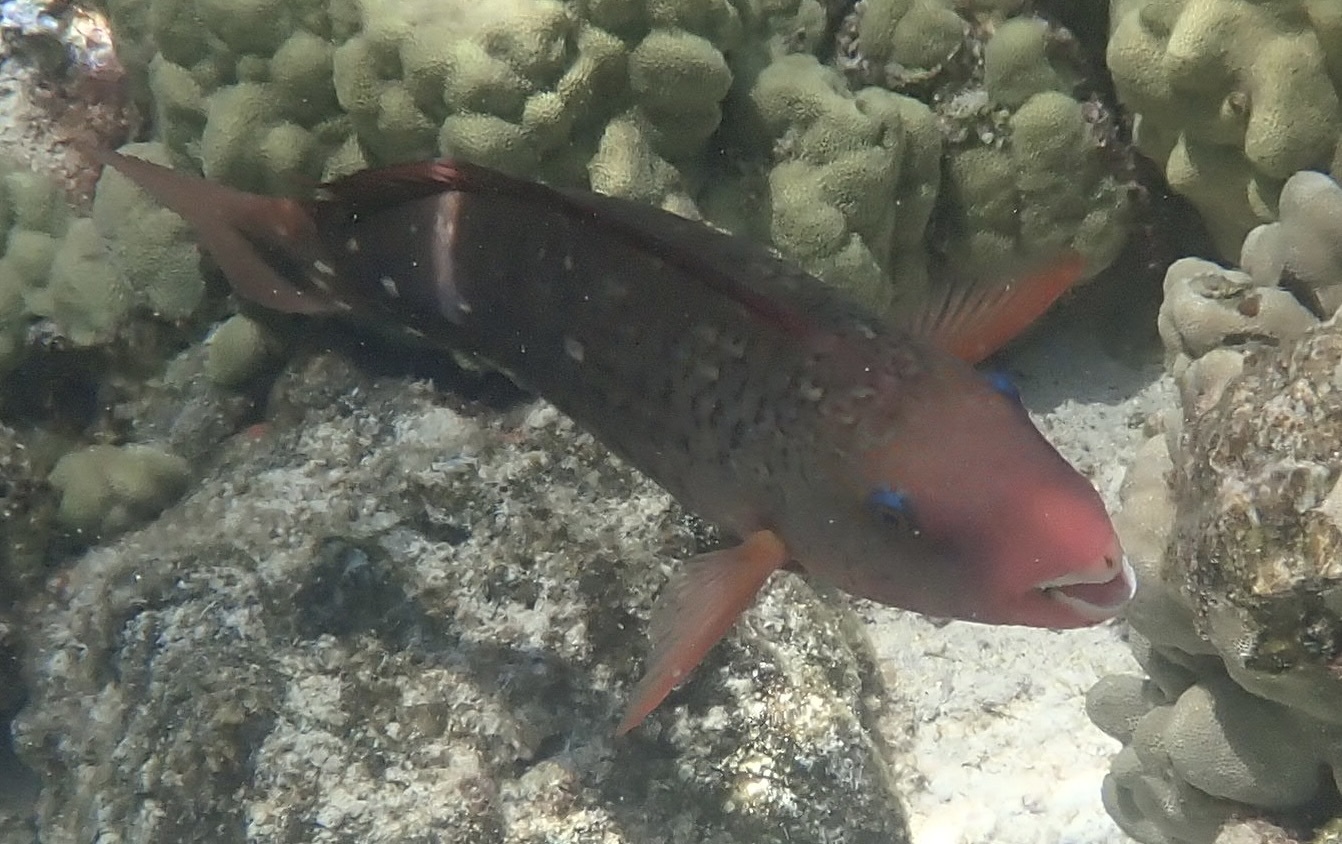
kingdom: Animalia
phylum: Chordata
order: Perciformes
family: Scaridae
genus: Chlorurus
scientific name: Chlorurus spilurus
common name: Bullethead parrotfish
